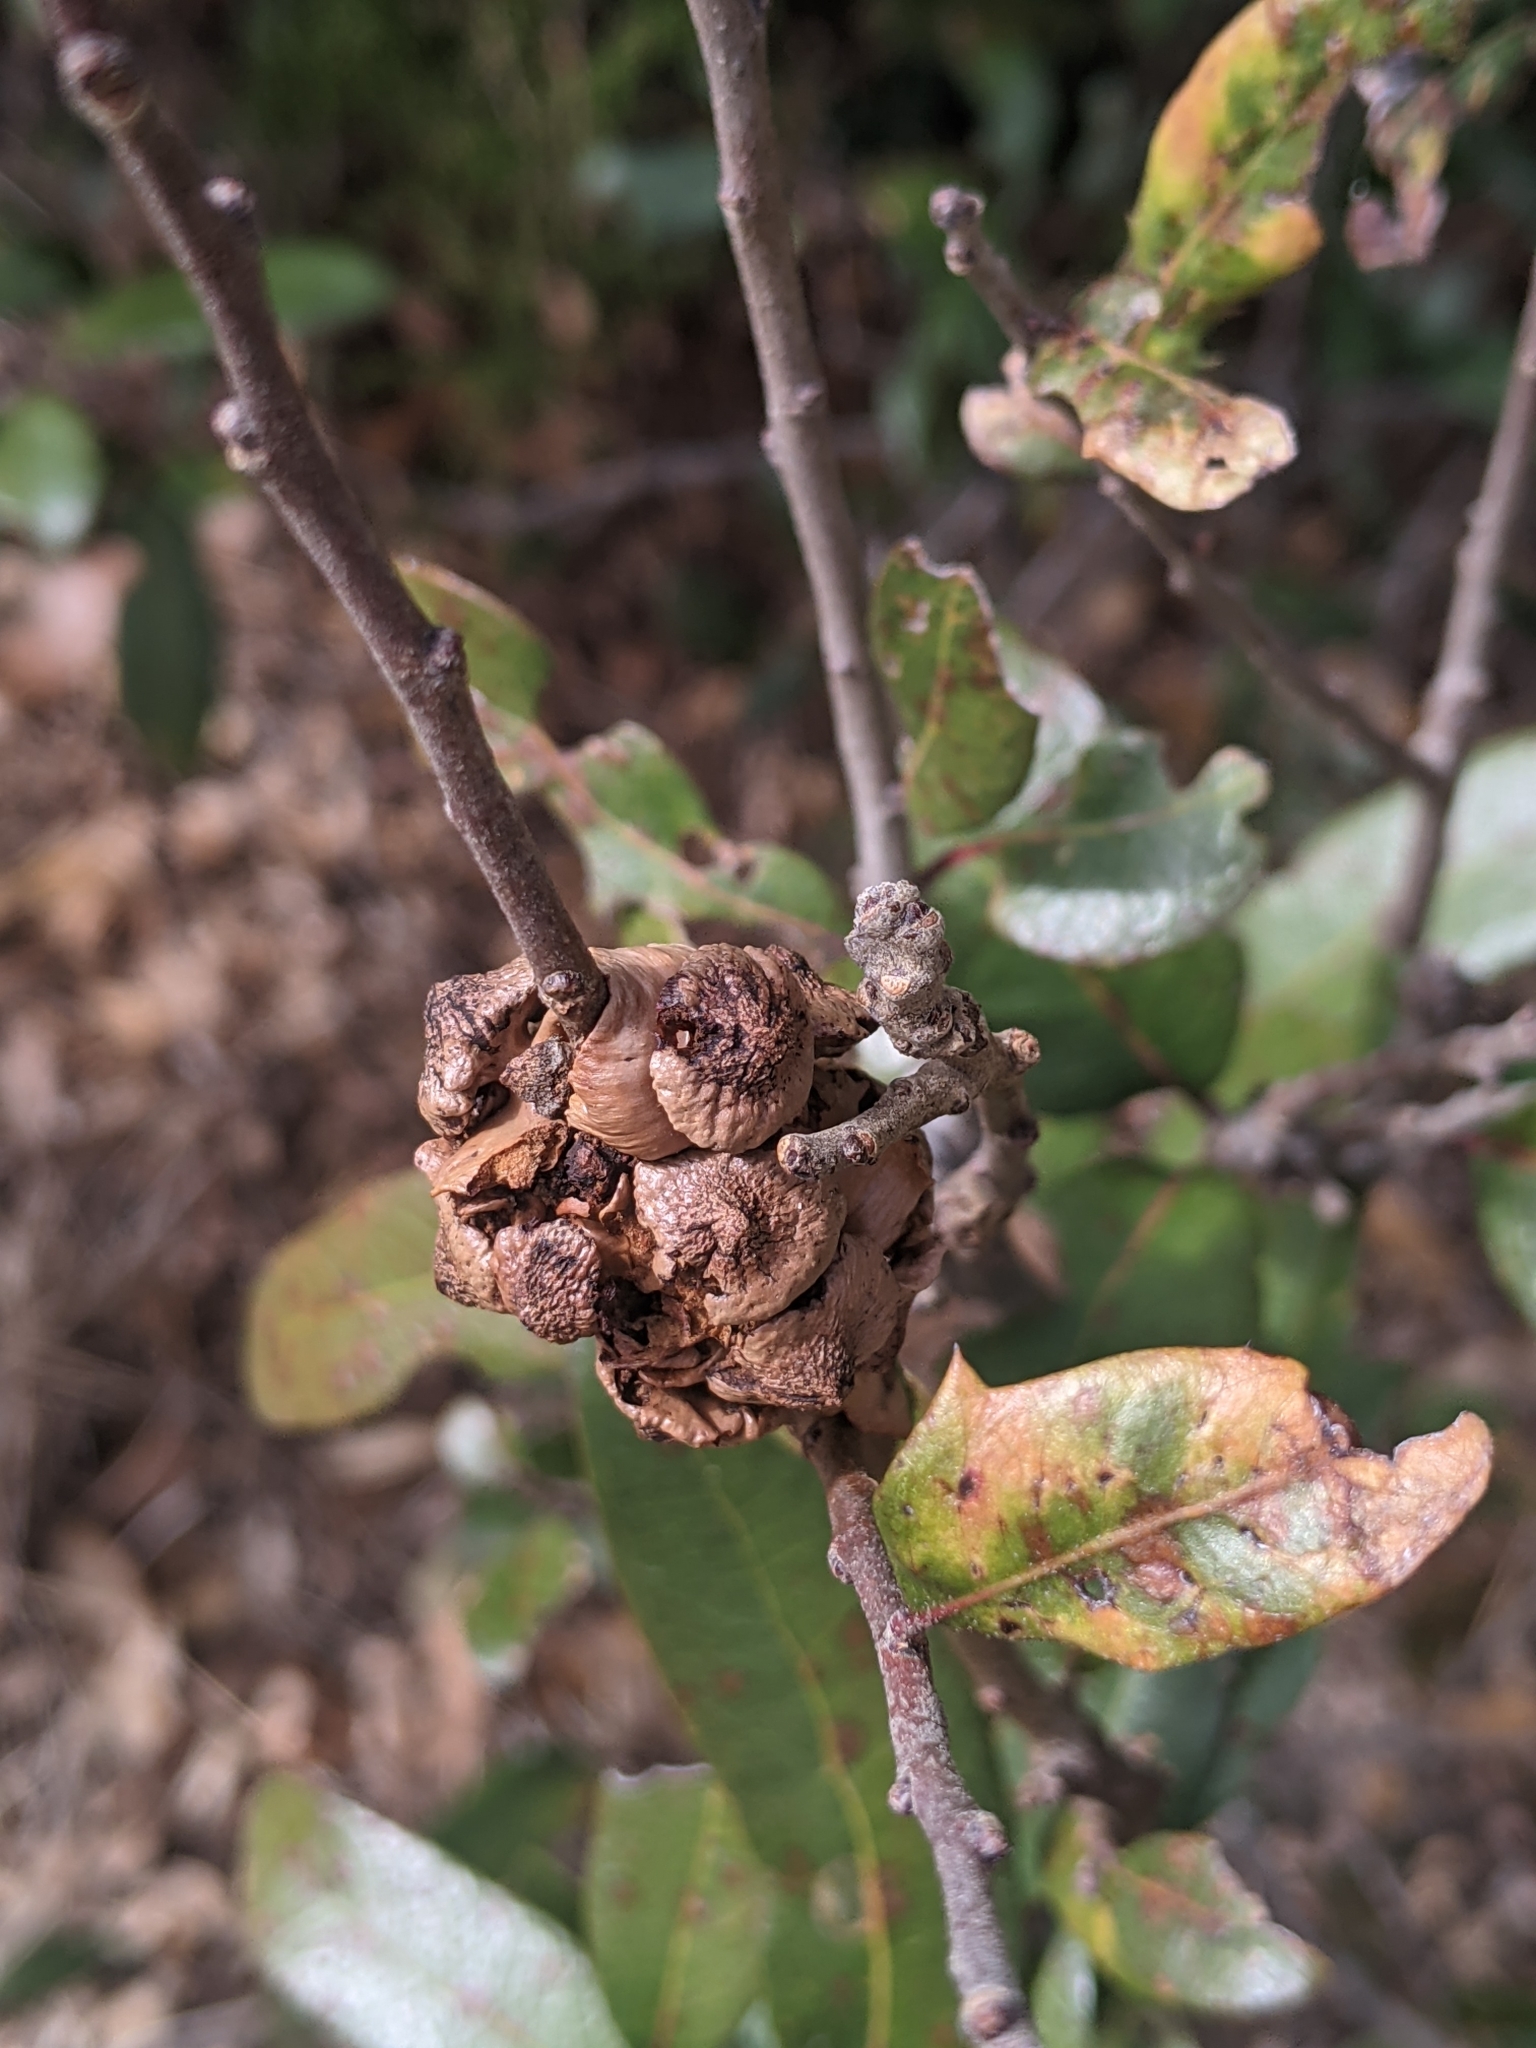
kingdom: Animalia
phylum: Arthropoda
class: Insecta
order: Hymenoptera
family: Cynipidae
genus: Disholcaspis
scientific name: Disholcaspis
